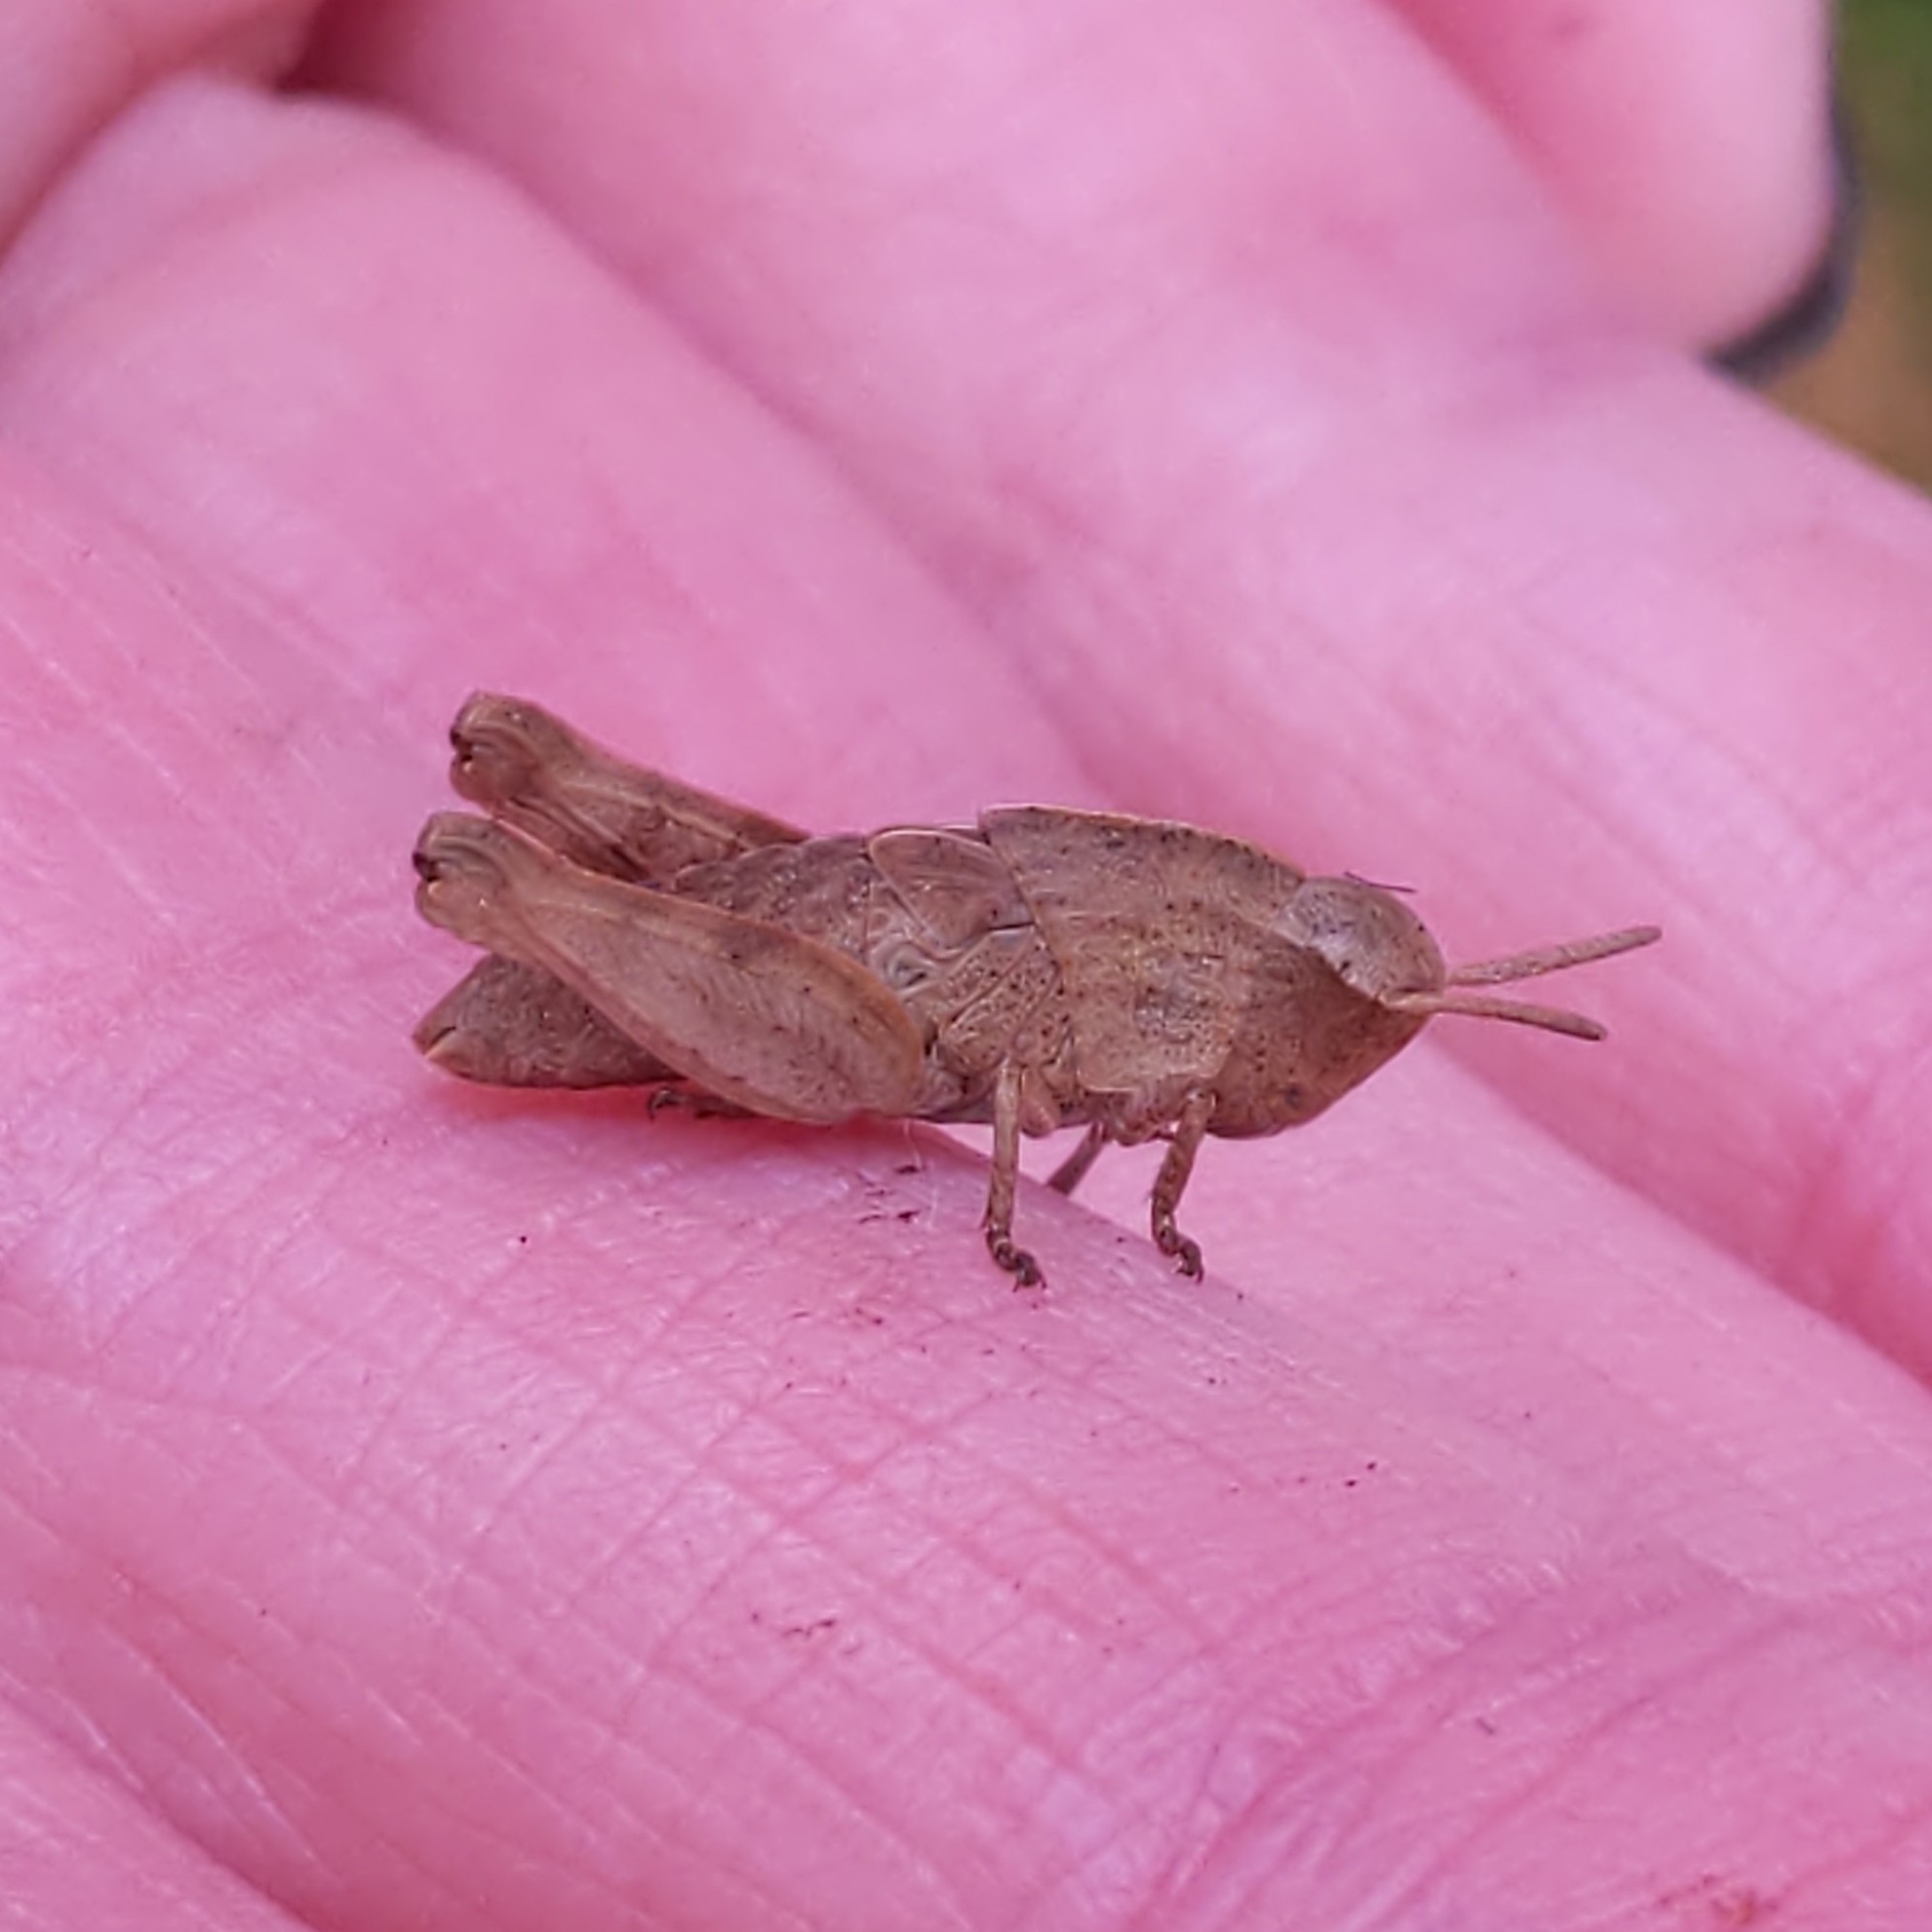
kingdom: Animalia
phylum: Arthropoda
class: Insecta
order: Orthoptera
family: Acrididae
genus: Chortophaga
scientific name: Chortophaga viridifasciata
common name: Green-striped grasshopper
